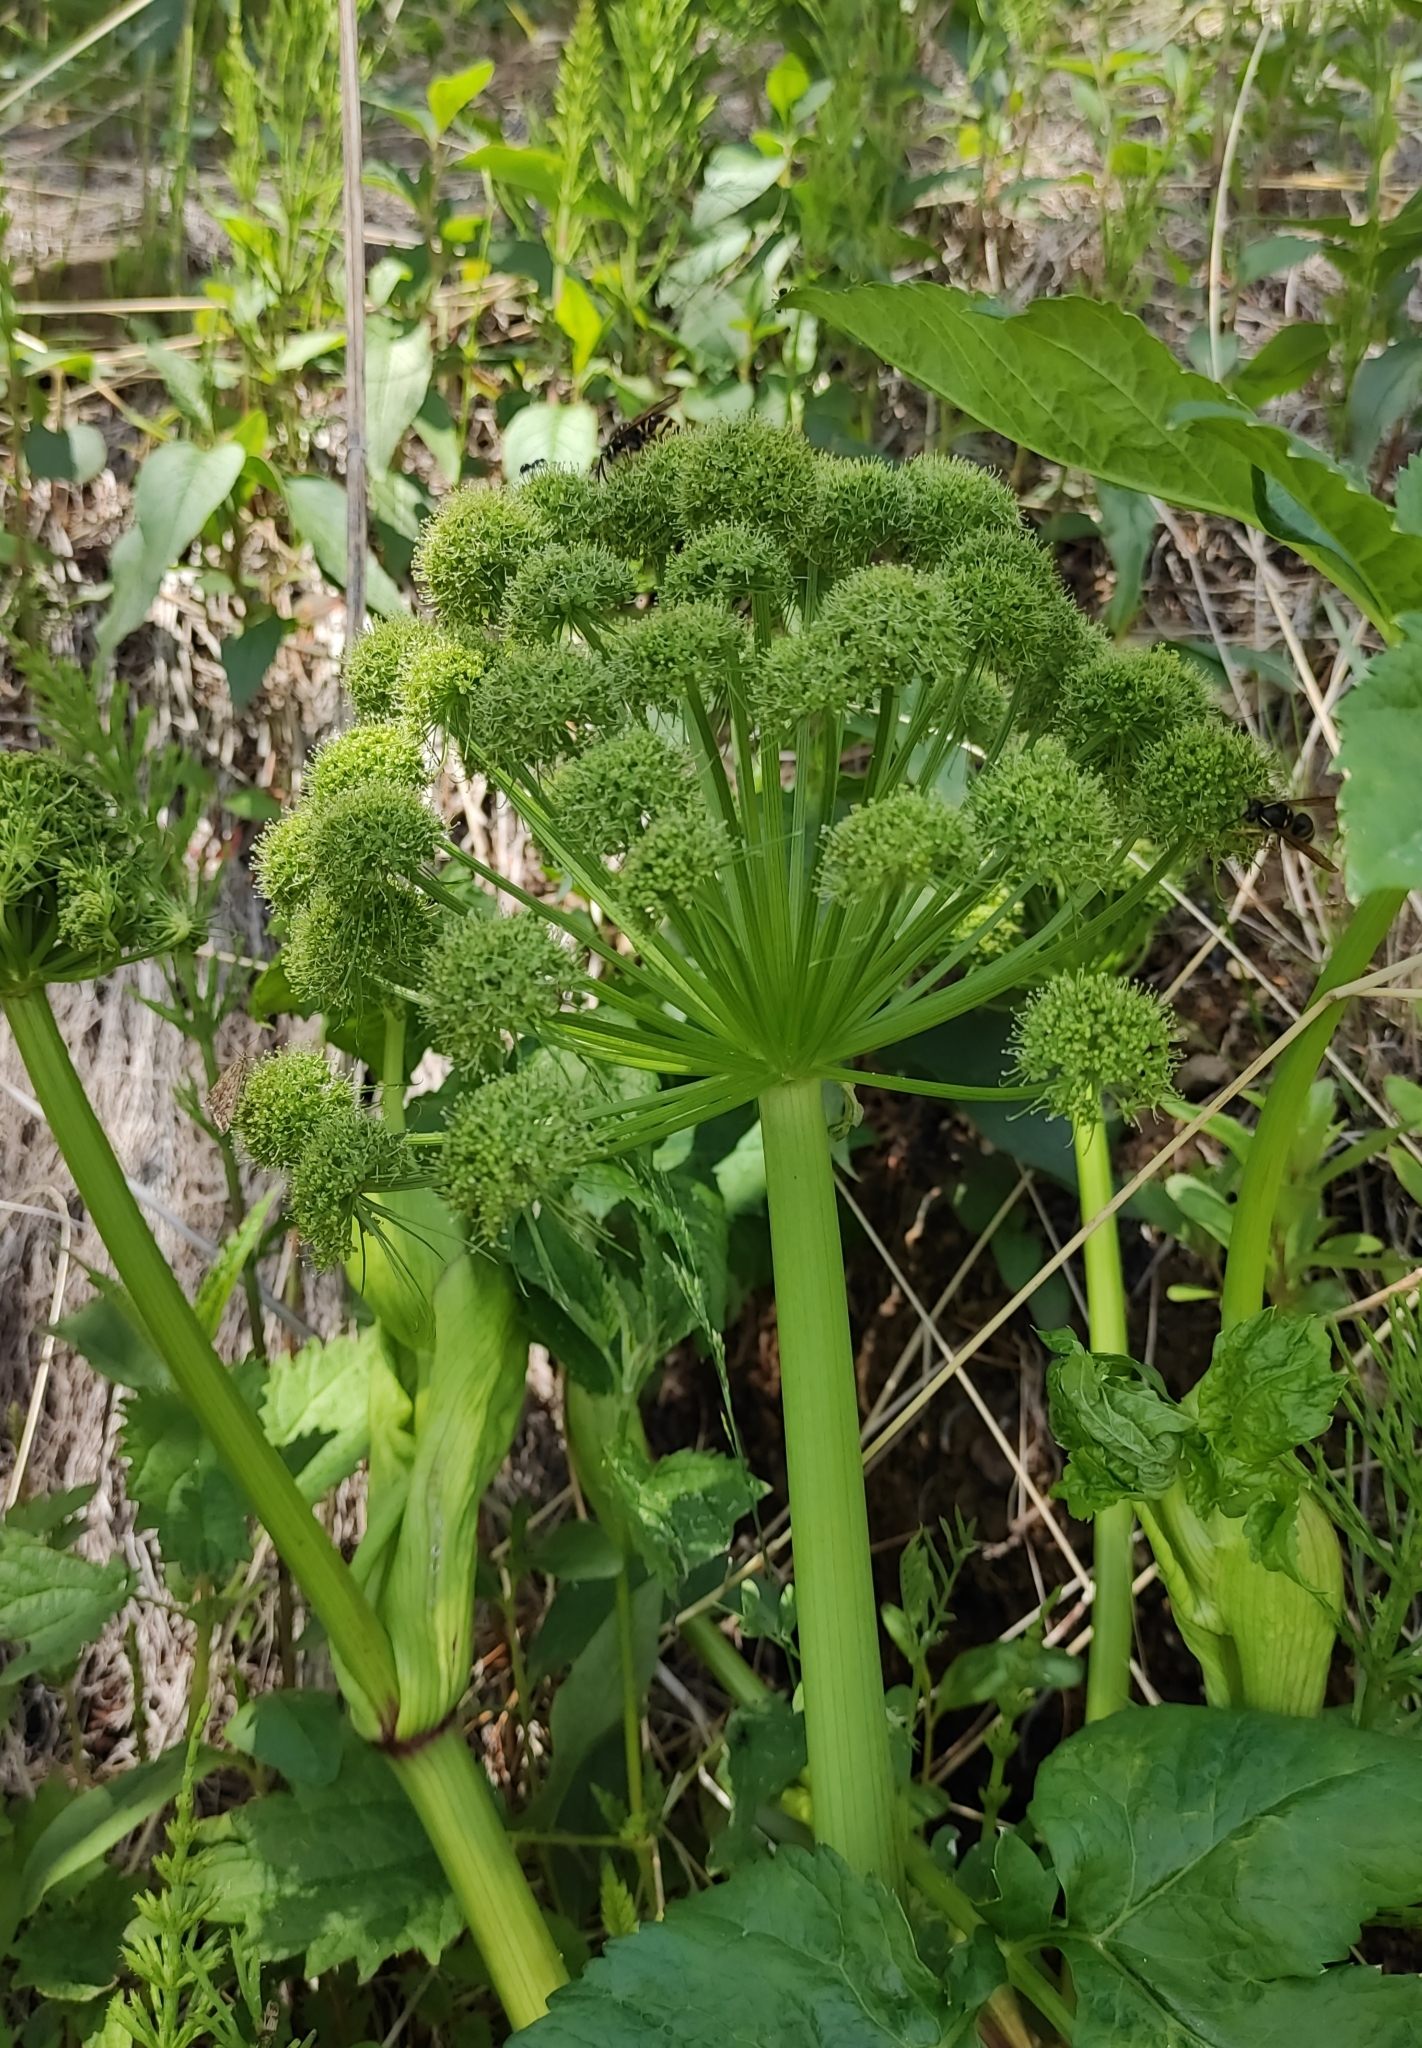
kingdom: Plantae
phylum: Tracheophyta
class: Magnoliopsida
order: Apiales
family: Apiaceae
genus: Angelica
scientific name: Angelica decurrens
